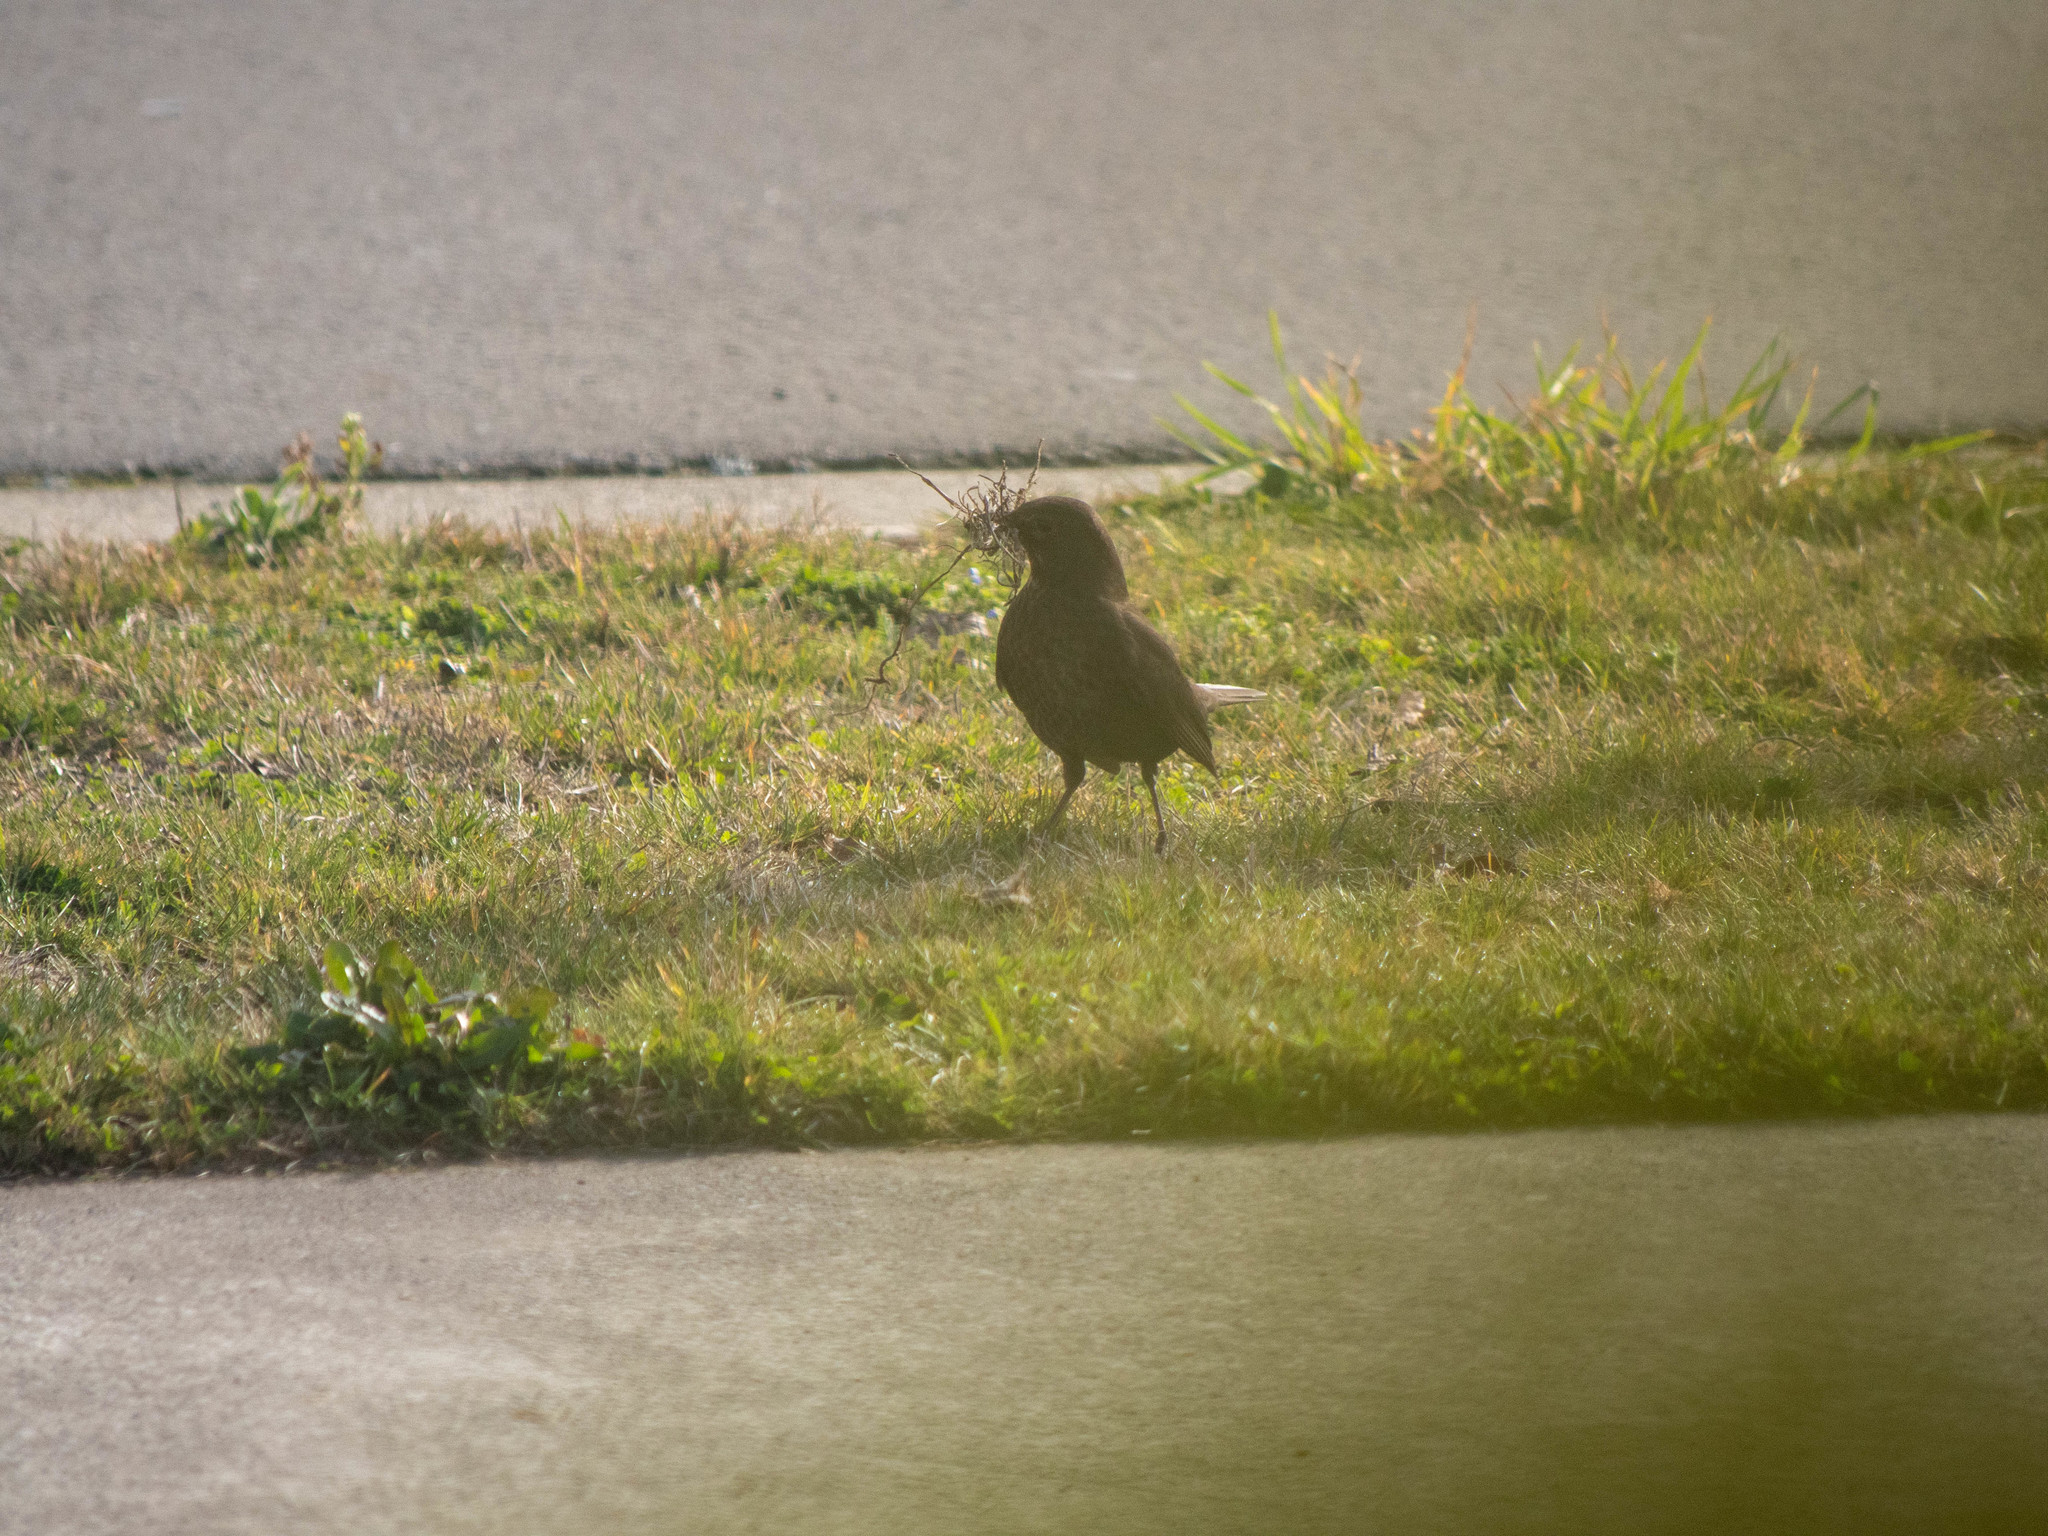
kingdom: Animalia
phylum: Chordata
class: Aves
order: Passeriformes
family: Turdidae
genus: Turdus
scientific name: Turdus merula
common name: Common blackbird
